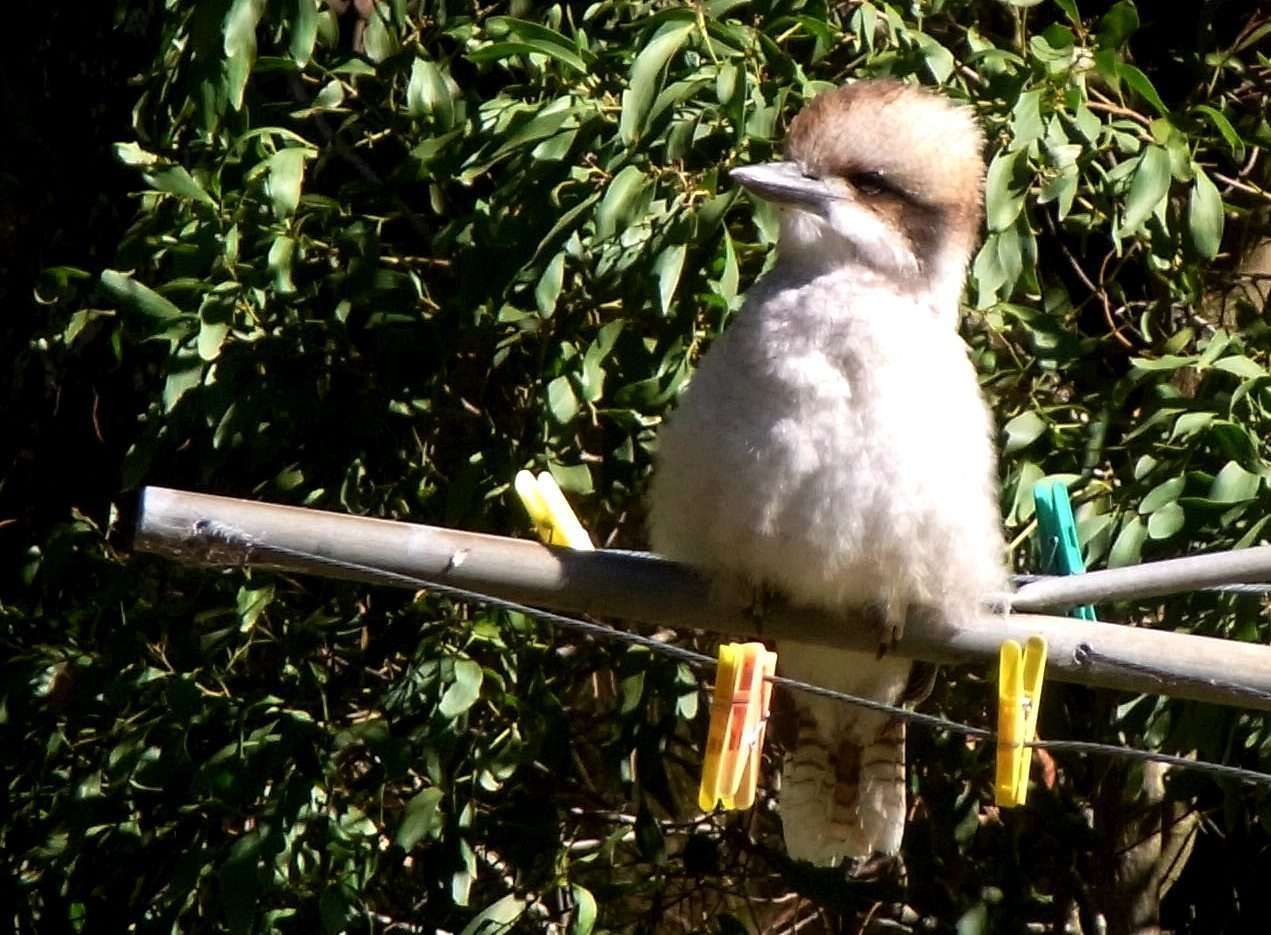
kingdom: Animalia
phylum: Chordata
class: Aves
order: Coraciiformes
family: Alcedinidae
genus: Dacelo
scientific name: Dacelo novaeguineae
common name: Laughing kookaburra
